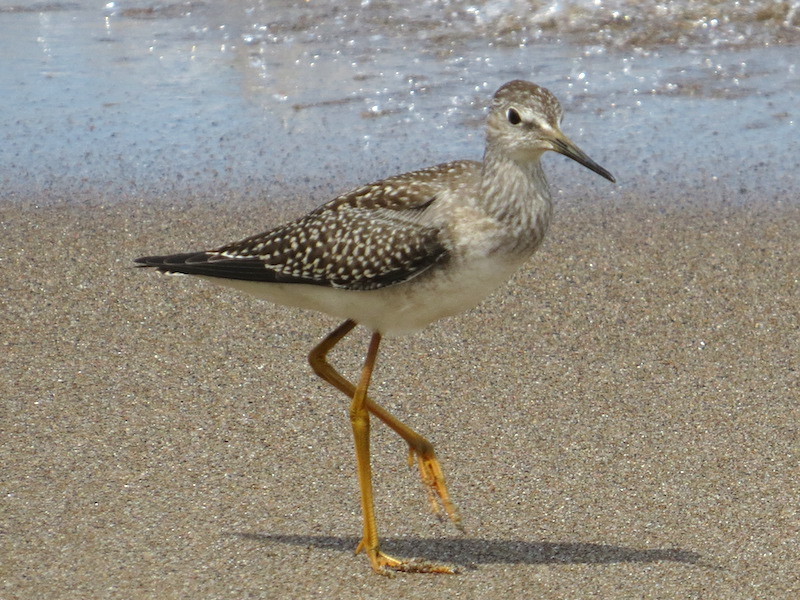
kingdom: Animalia
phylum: Chordata
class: Aves
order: Charadriiformes
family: Scolopacidae
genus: Tringa
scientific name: Tringa flavipes
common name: Lesser yellowlegs
